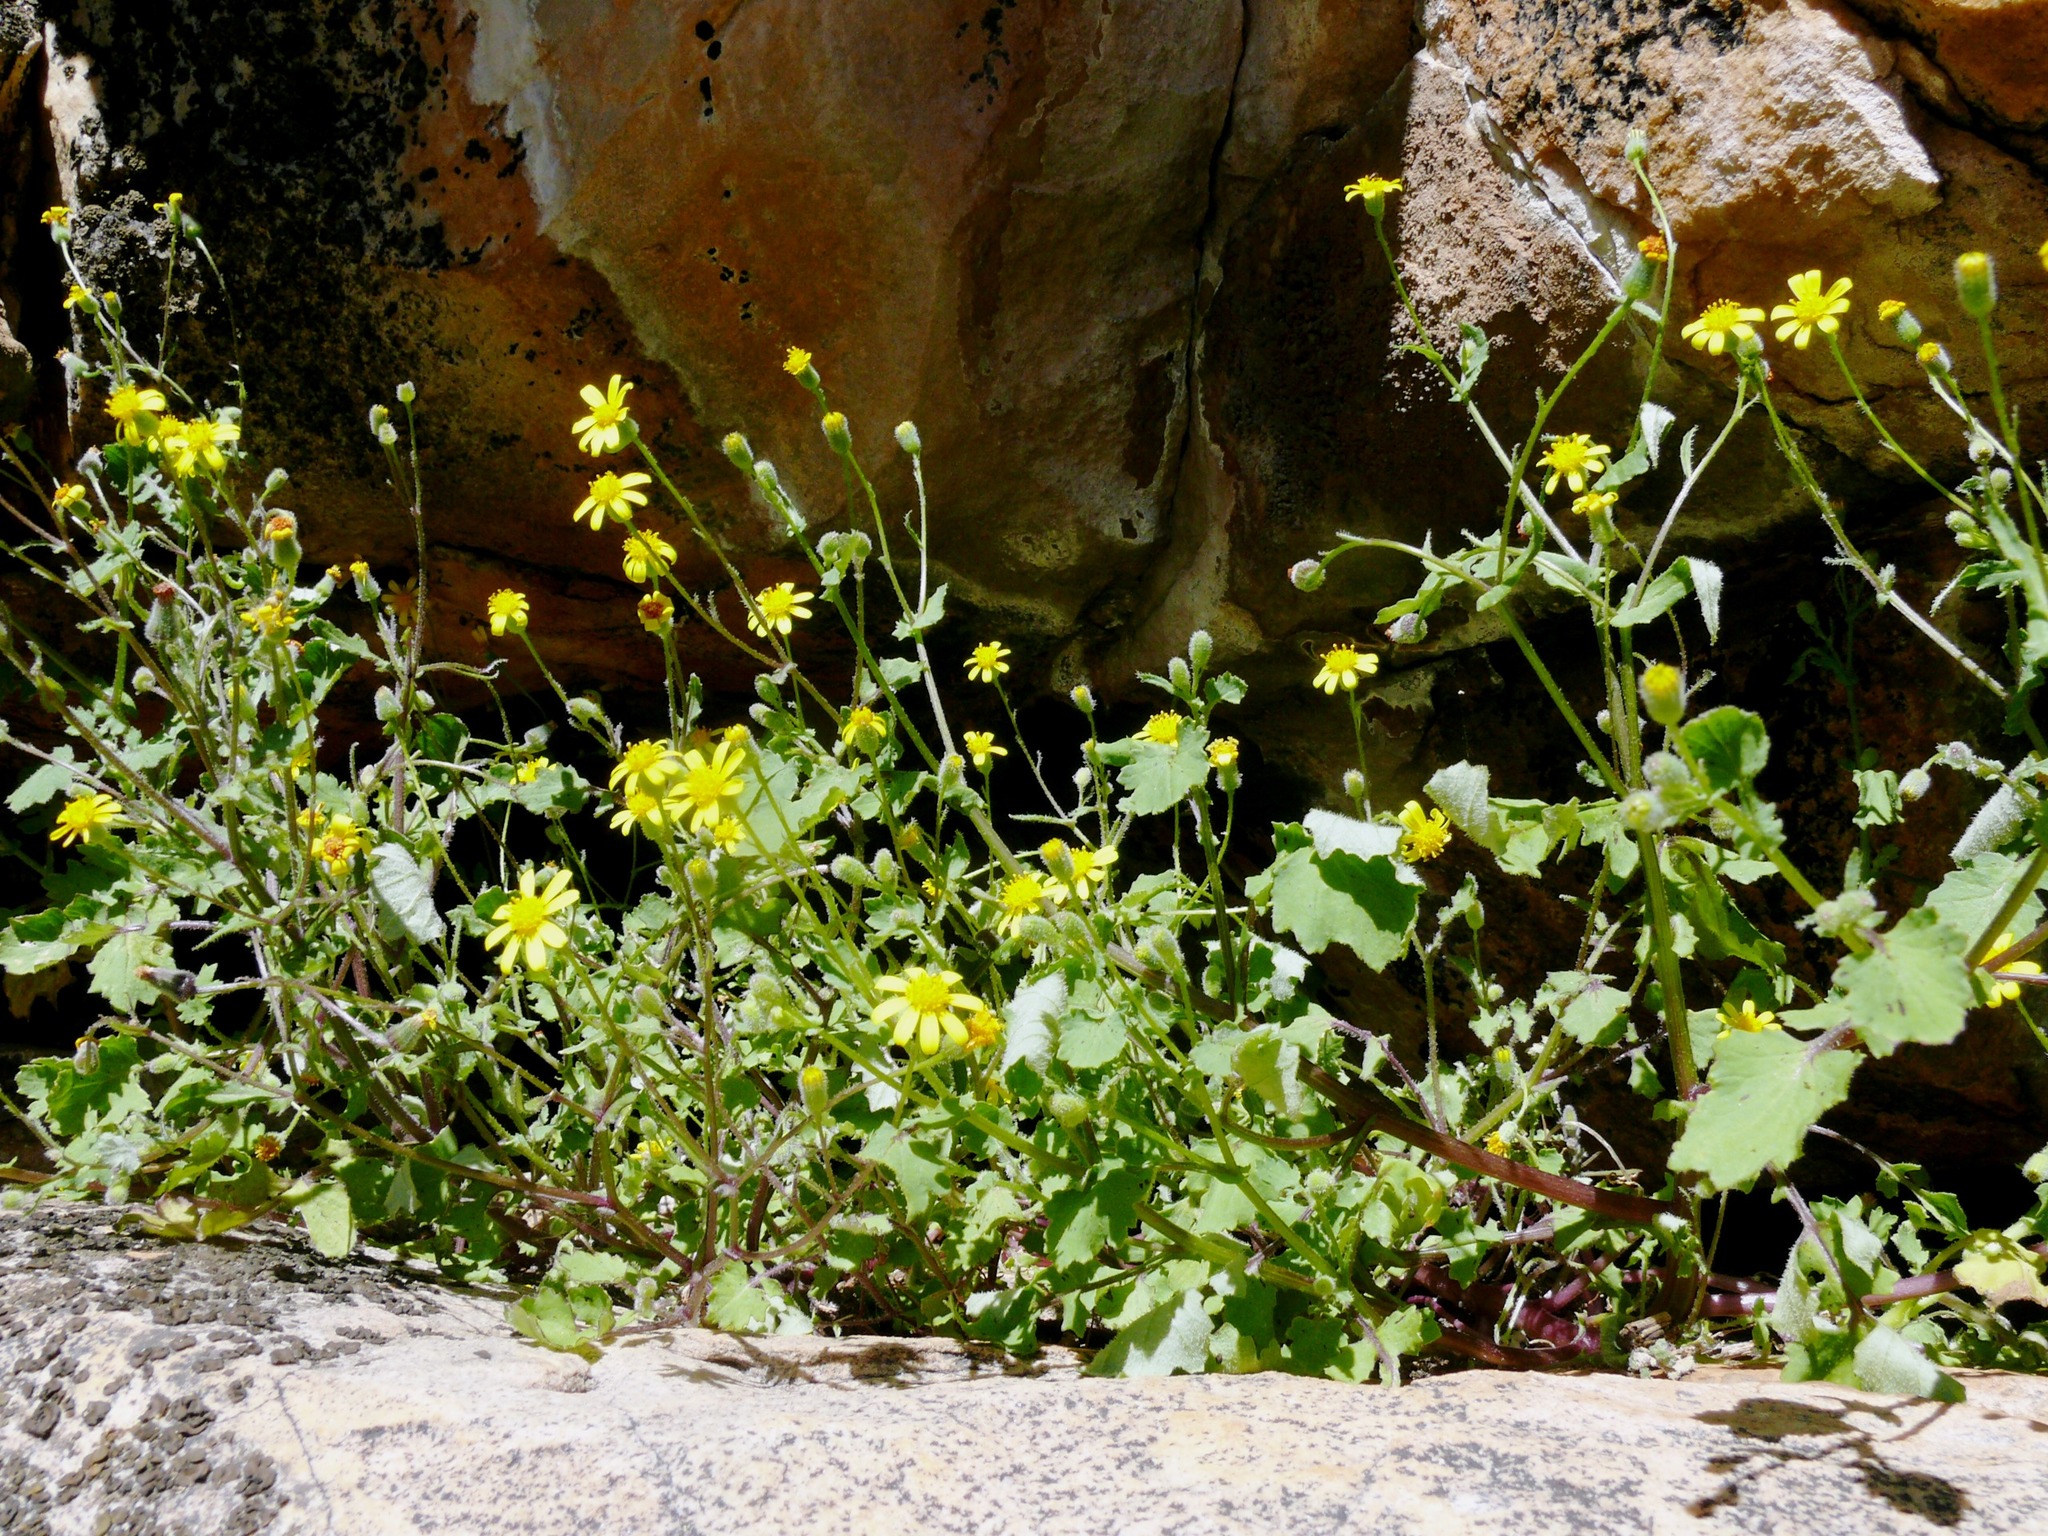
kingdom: Plantae
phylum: Tracheophyta
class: Magnoliopsida
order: Asterales
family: Asteraceae
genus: Cineraria
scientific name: Cineraria alchemilloides
